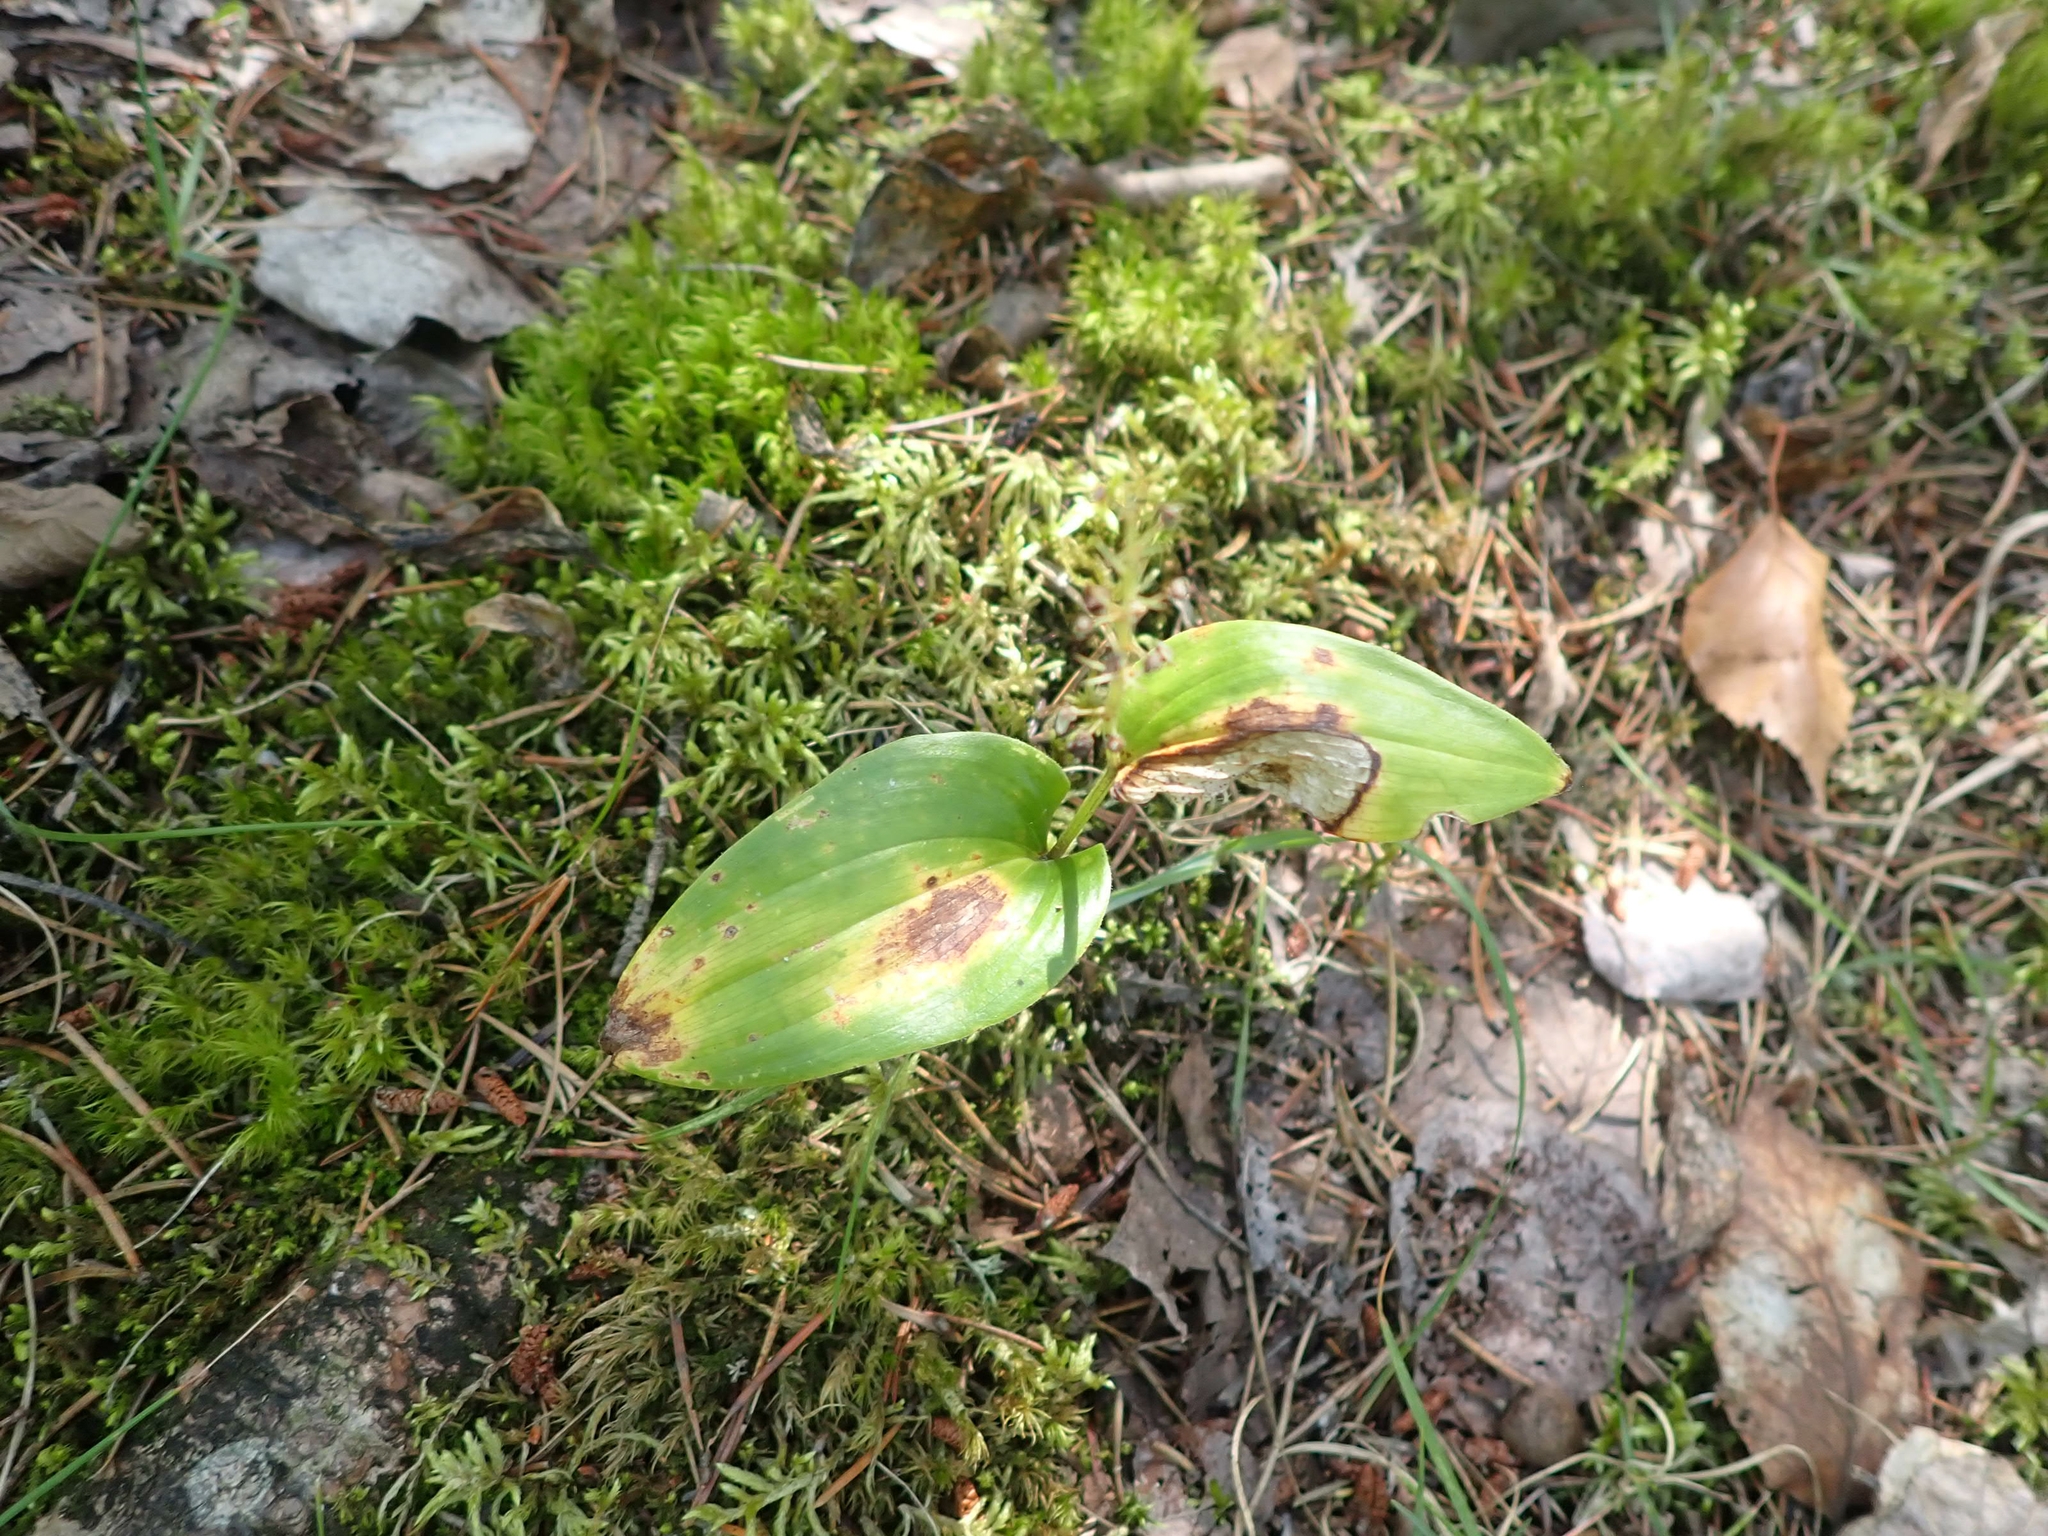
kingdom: Plantae
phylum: Tracheophyta
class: Liliopsida
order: Asparagales
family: Asparagaceae
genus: Maianthemum
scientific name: Maianthemum canadense
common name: False lily-of-the-valley
